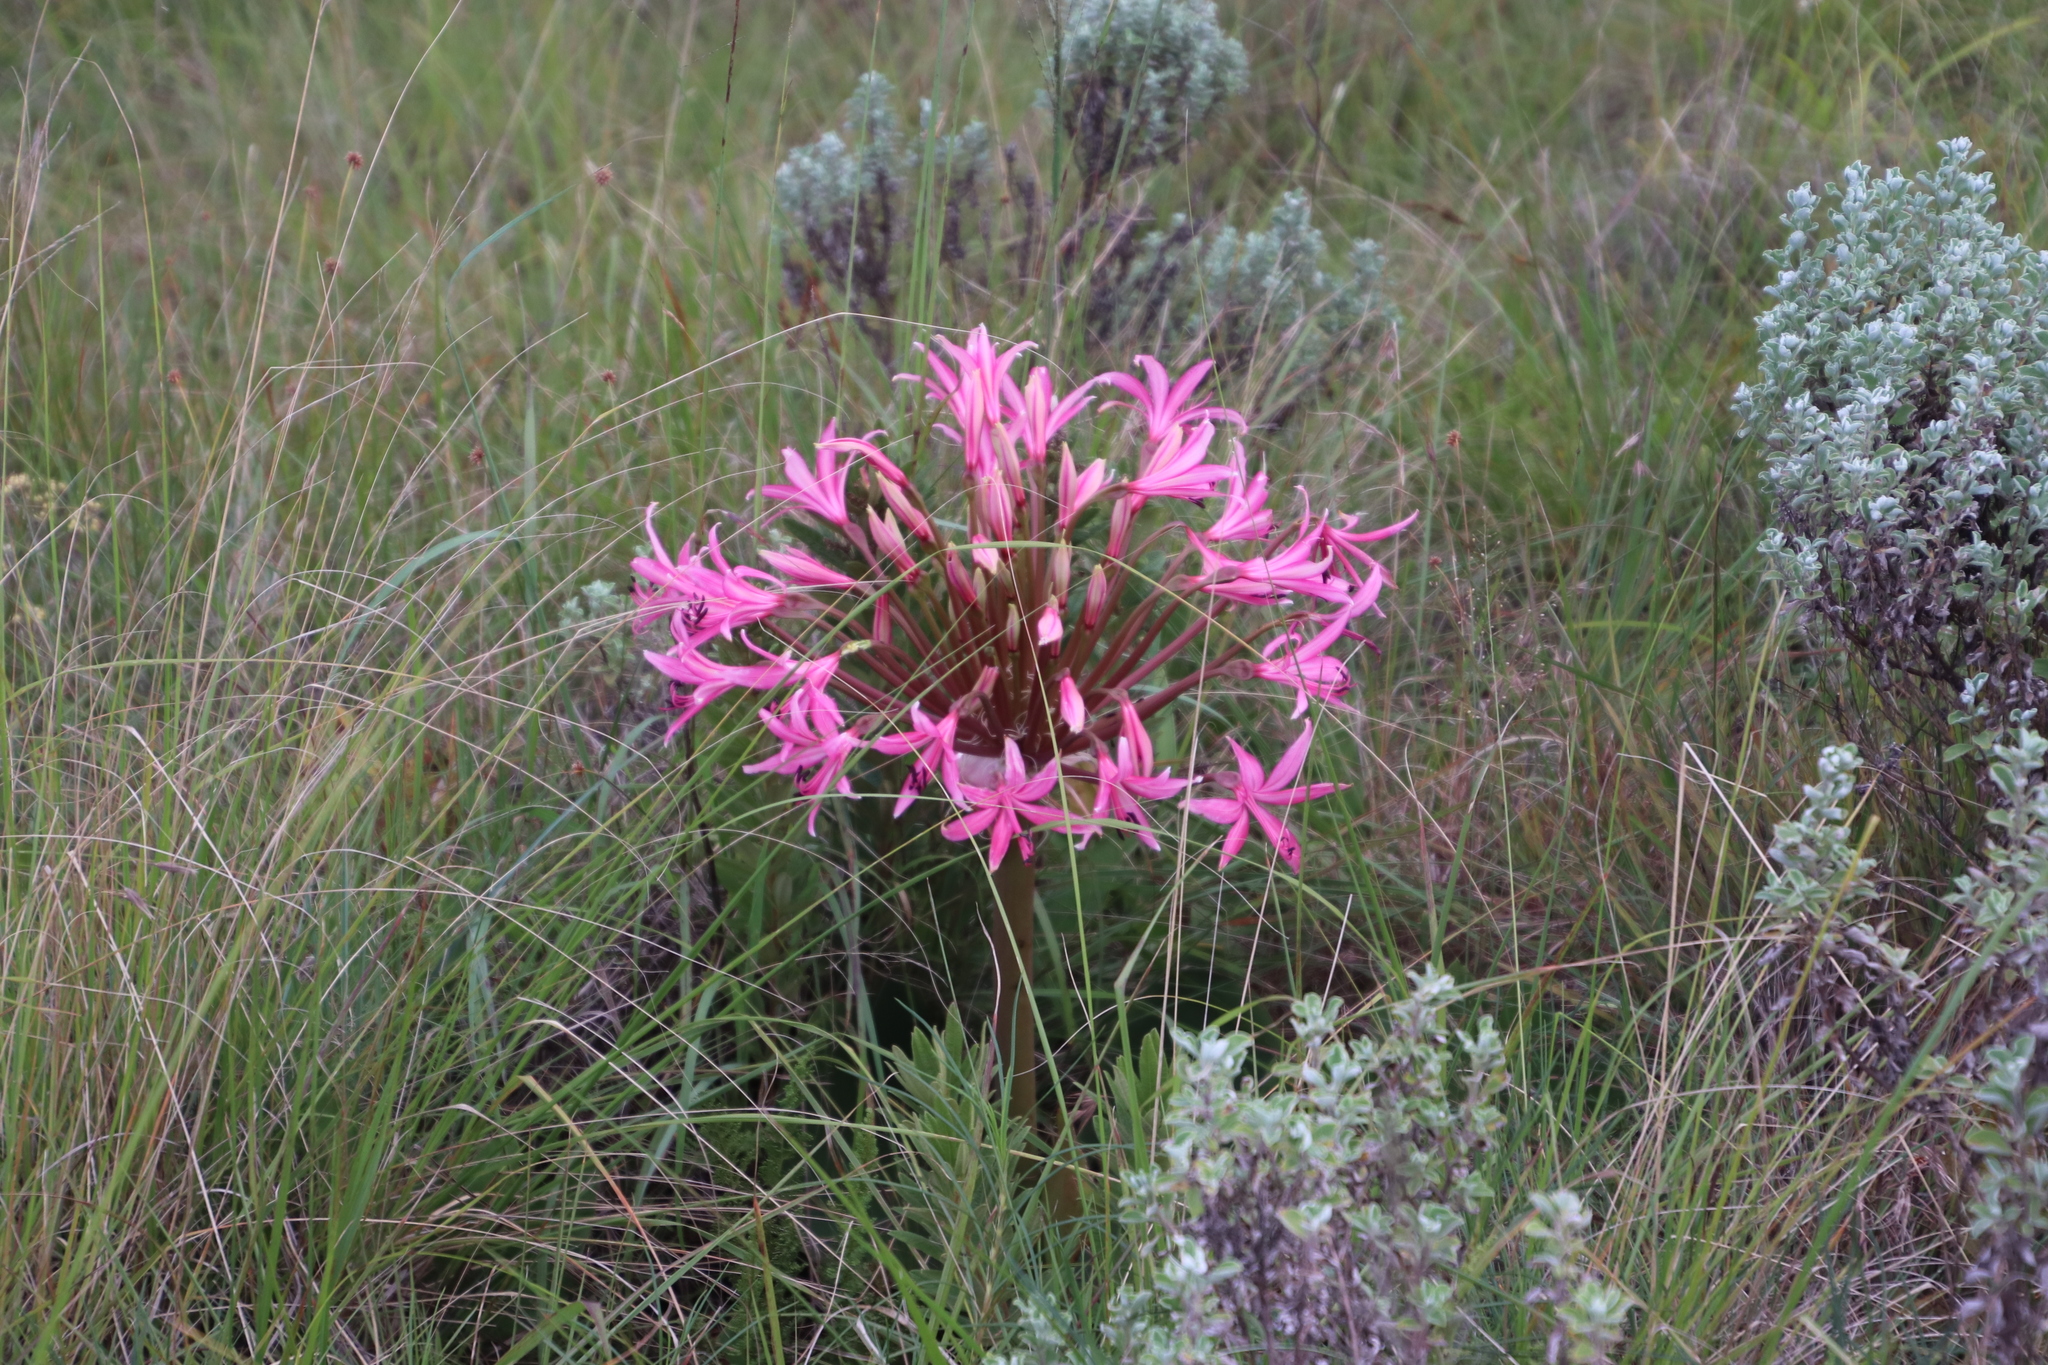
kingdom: Plantae
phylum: Tracheophyta
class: Liliopsida
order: Asparagales
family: Amaryllidaceae
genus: Brunsvigia
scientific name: Brunsvigia radulosa
